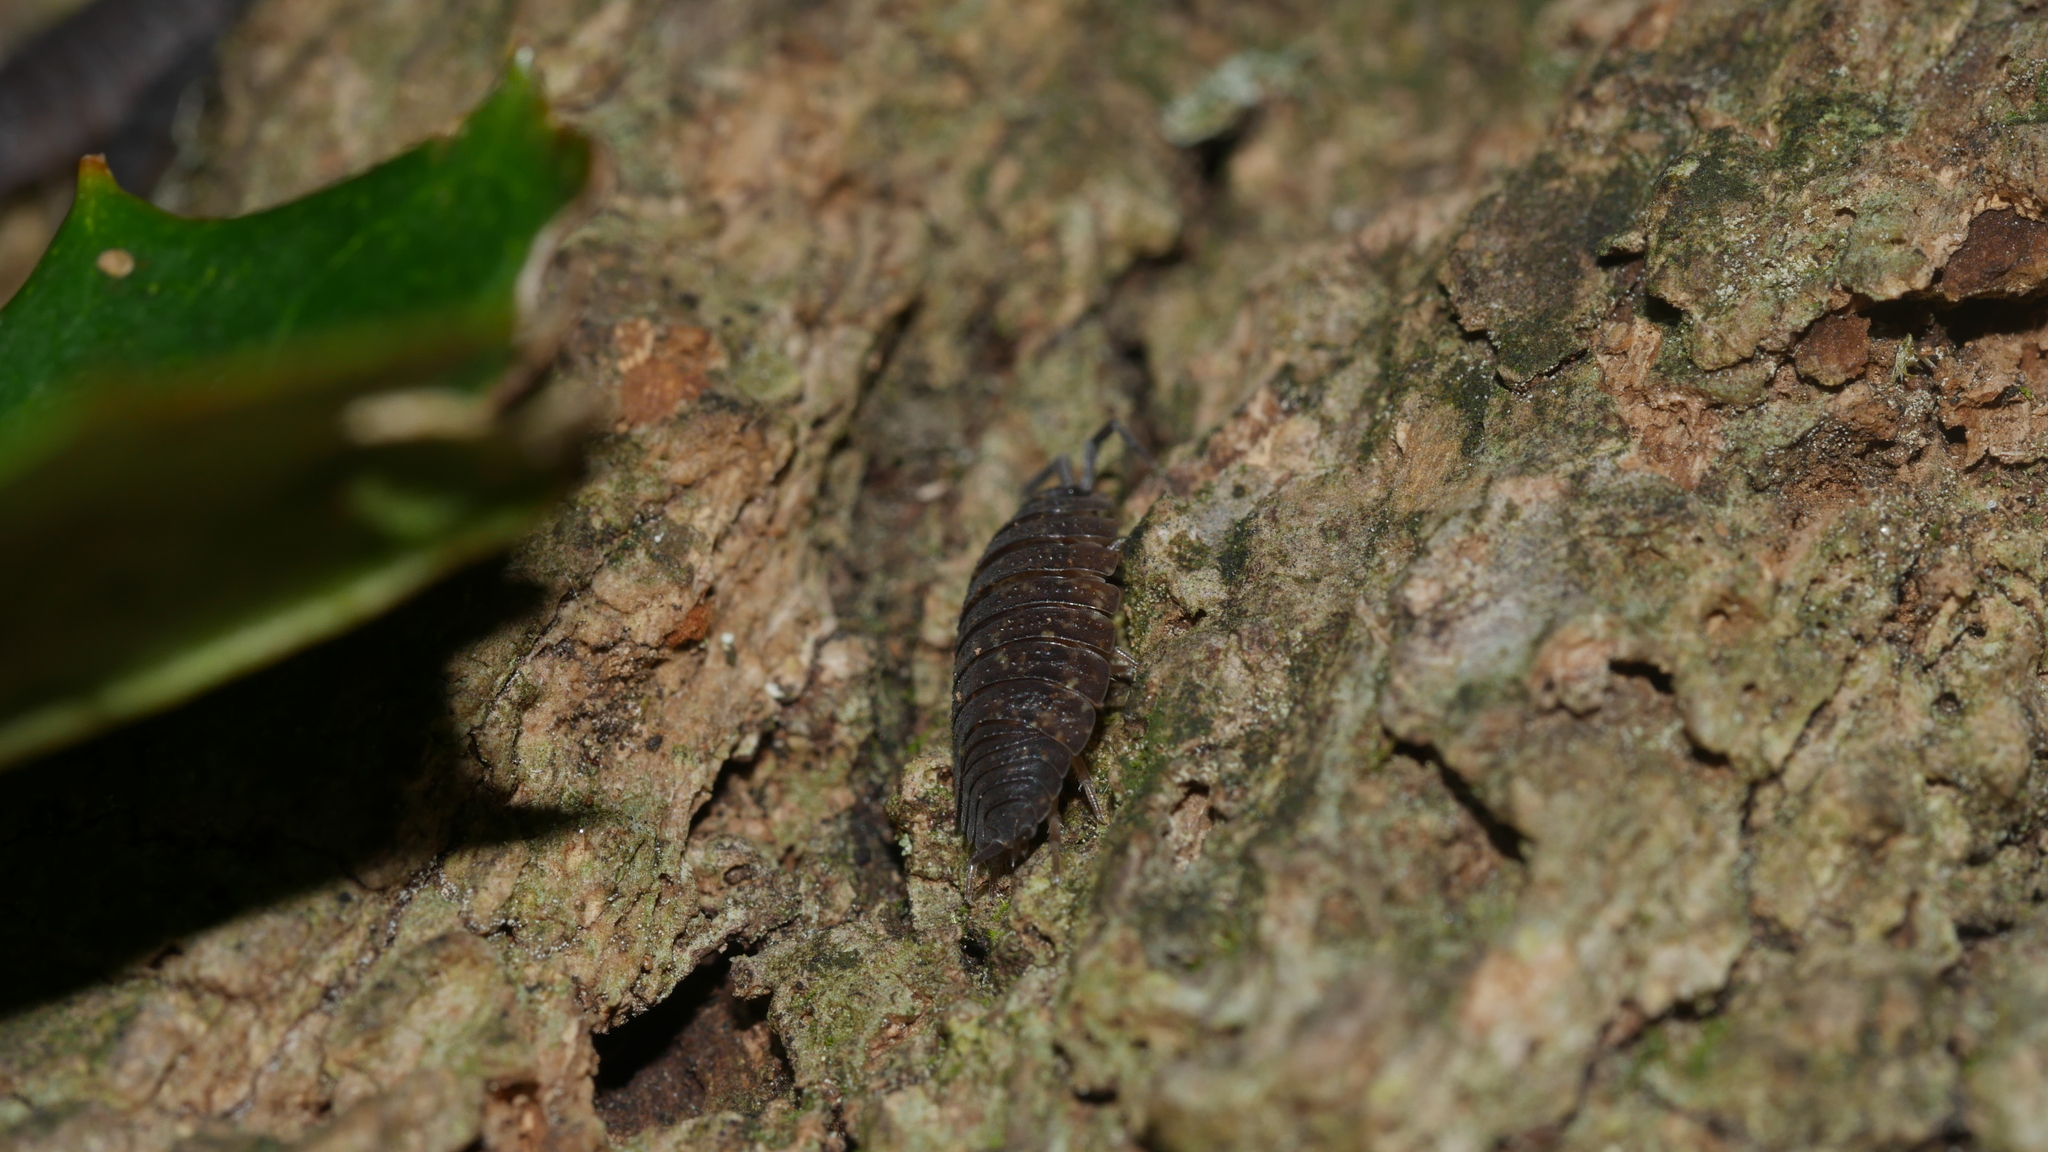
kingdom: Animalia
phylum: Arthropoda
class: Malacostraca
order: Isopoda
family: Porcellionidae
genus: Porcellio
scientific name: Porcellio scaber
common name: Common rough woodlouse
